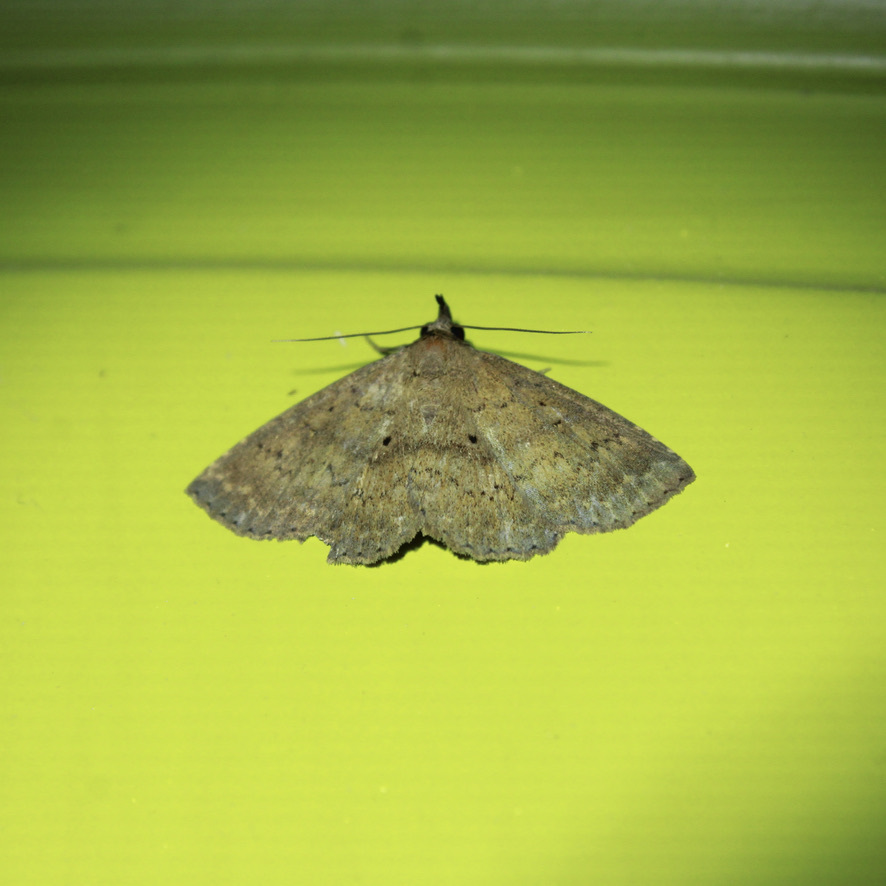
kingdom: Animalia
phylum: Arthropoda
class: Insecta
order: Lepidoptera
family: Erebidae
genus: Bleptina
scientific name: Bleptina dejecta
